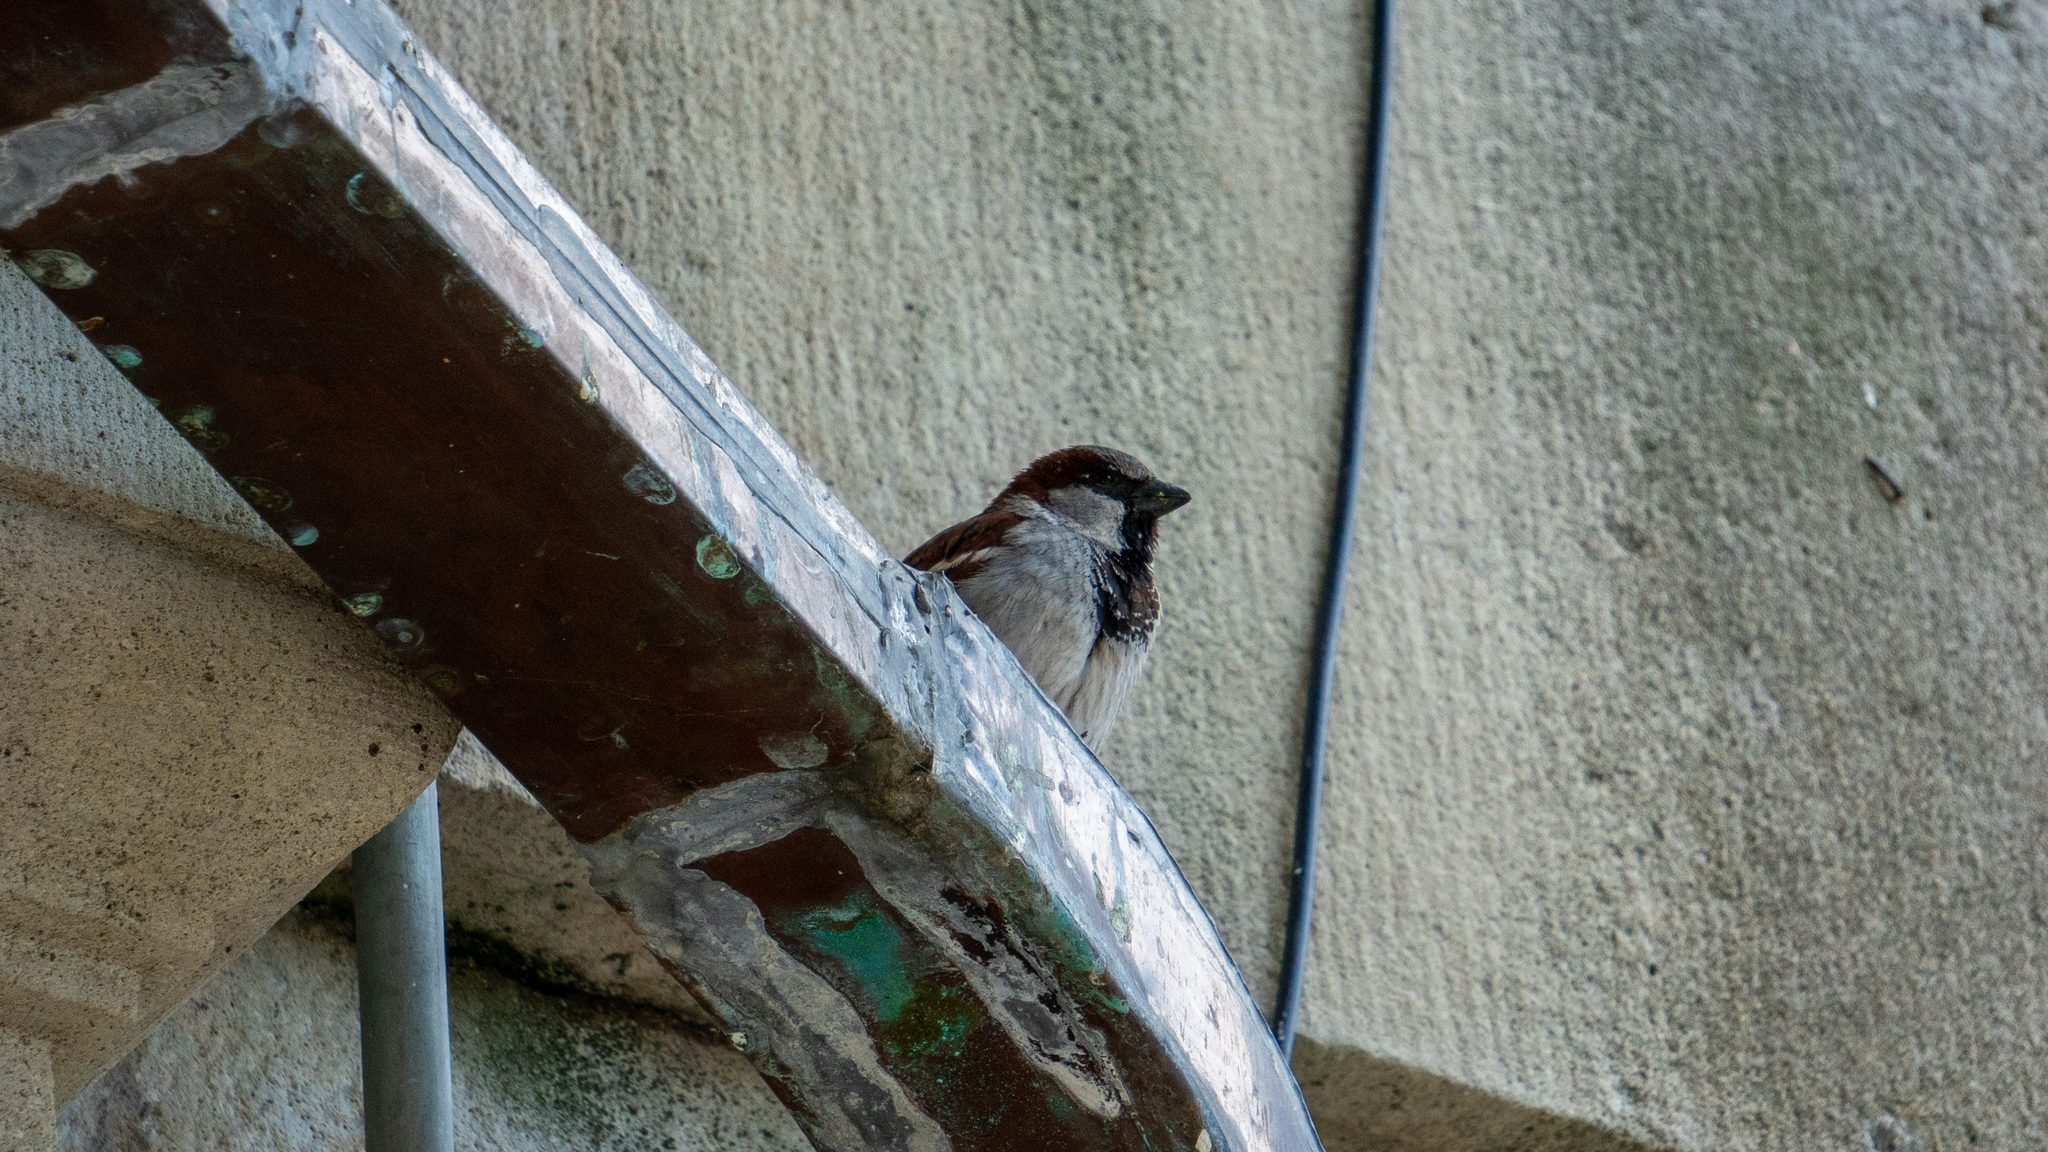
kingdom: Animalia
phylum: Chordata
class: Aves
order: Passeriformes
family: Passeridae
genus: Passer
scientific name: Passer domesticus
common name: House sparrow
